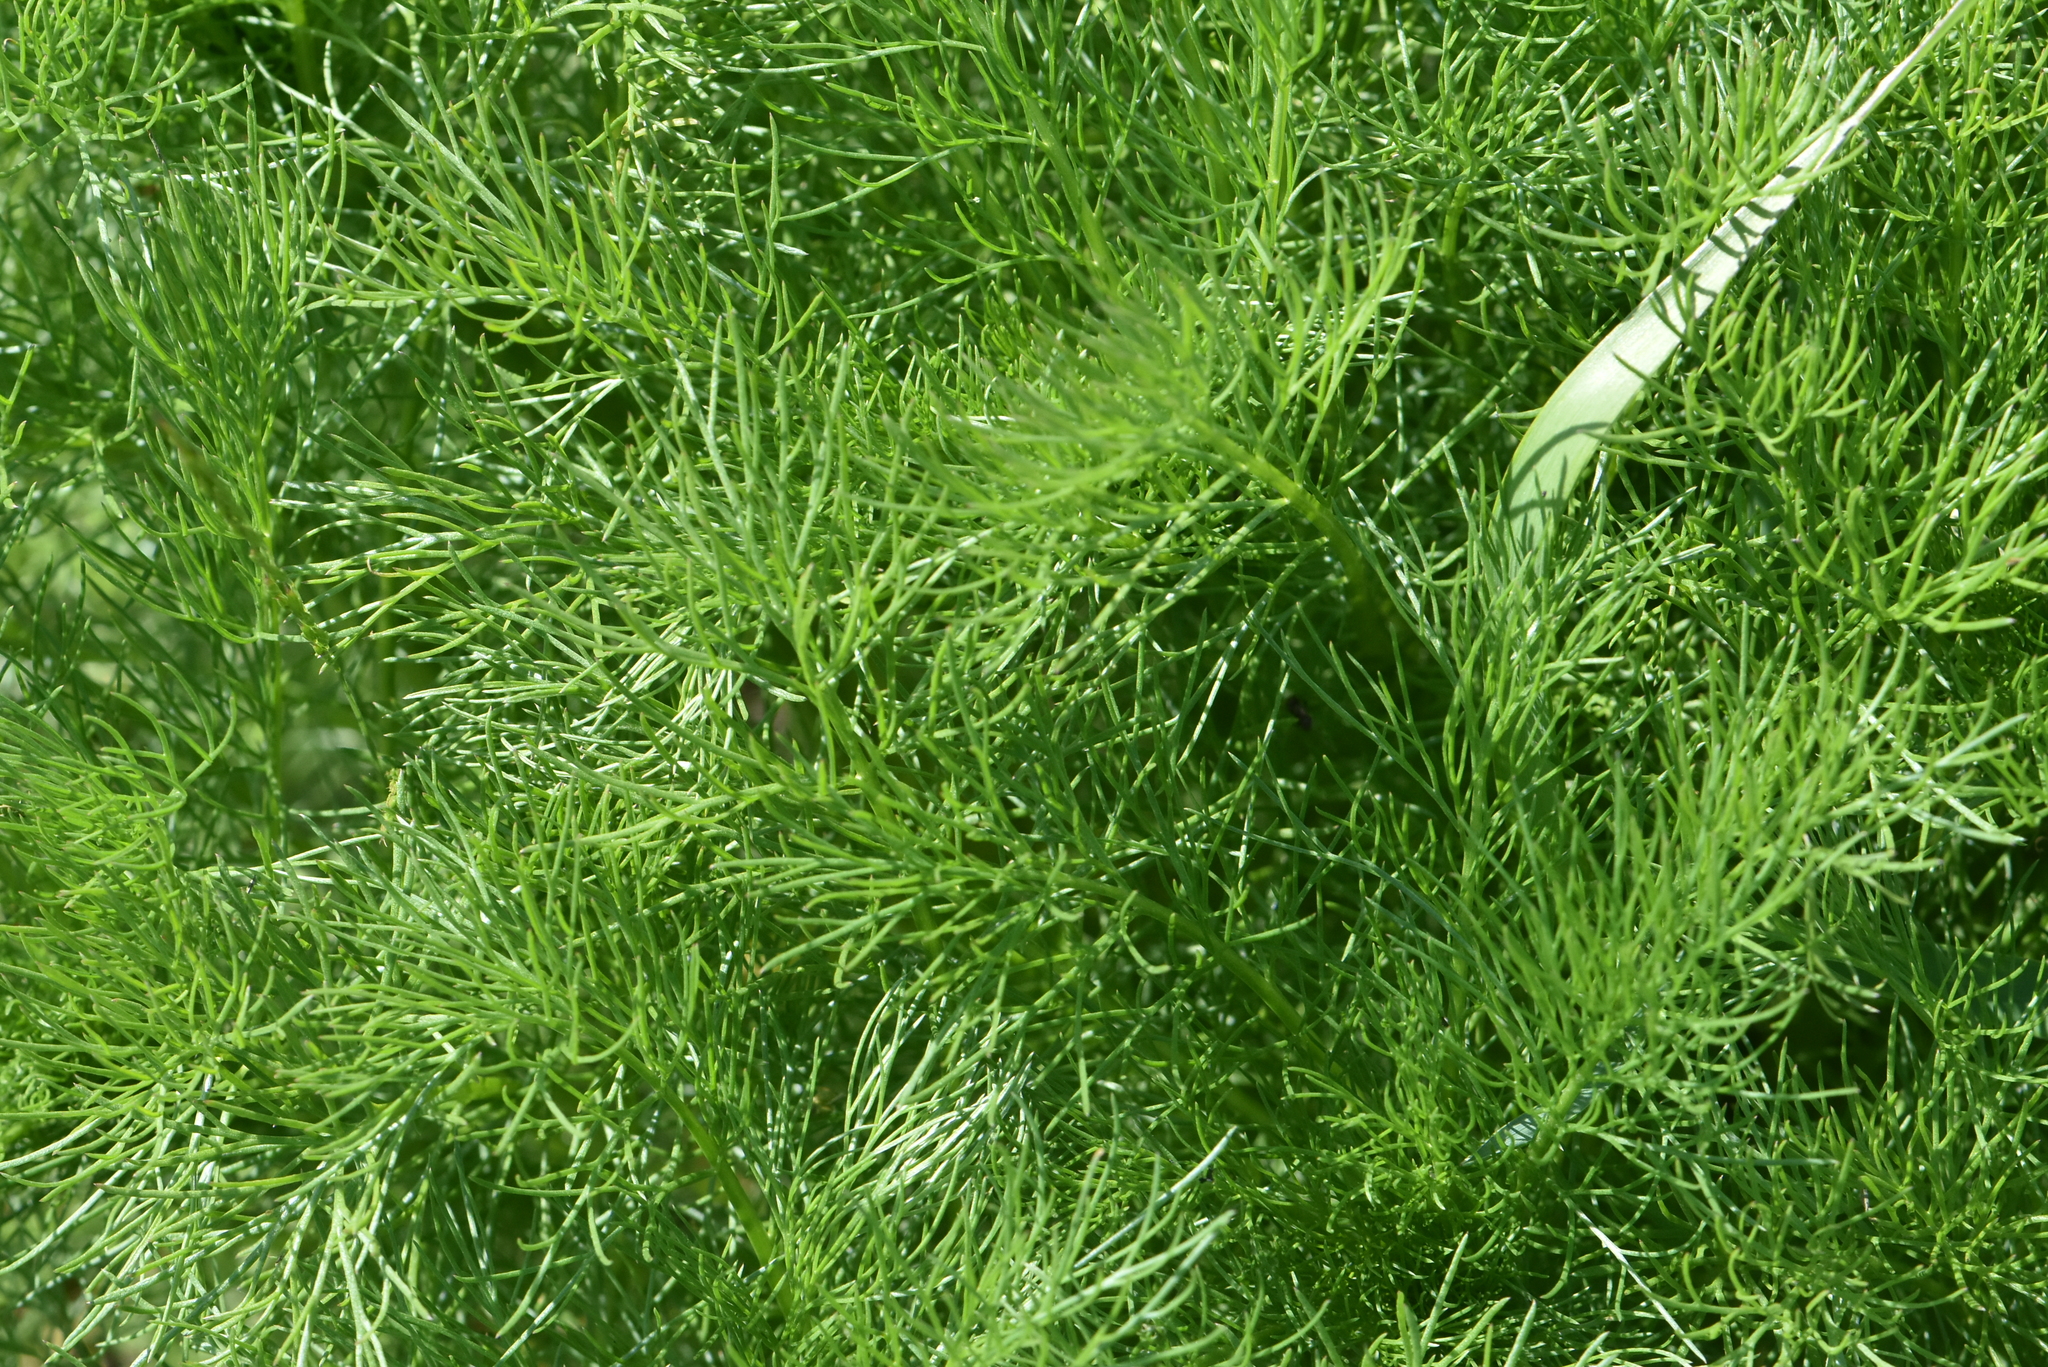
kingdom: Plantae
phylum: Tracheophyta
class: Magnoliopsida
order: Ranunculales
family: Ranunculaceae
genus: Adonis
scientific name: Adonis vernalis
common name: Yellow pheasants-eye
